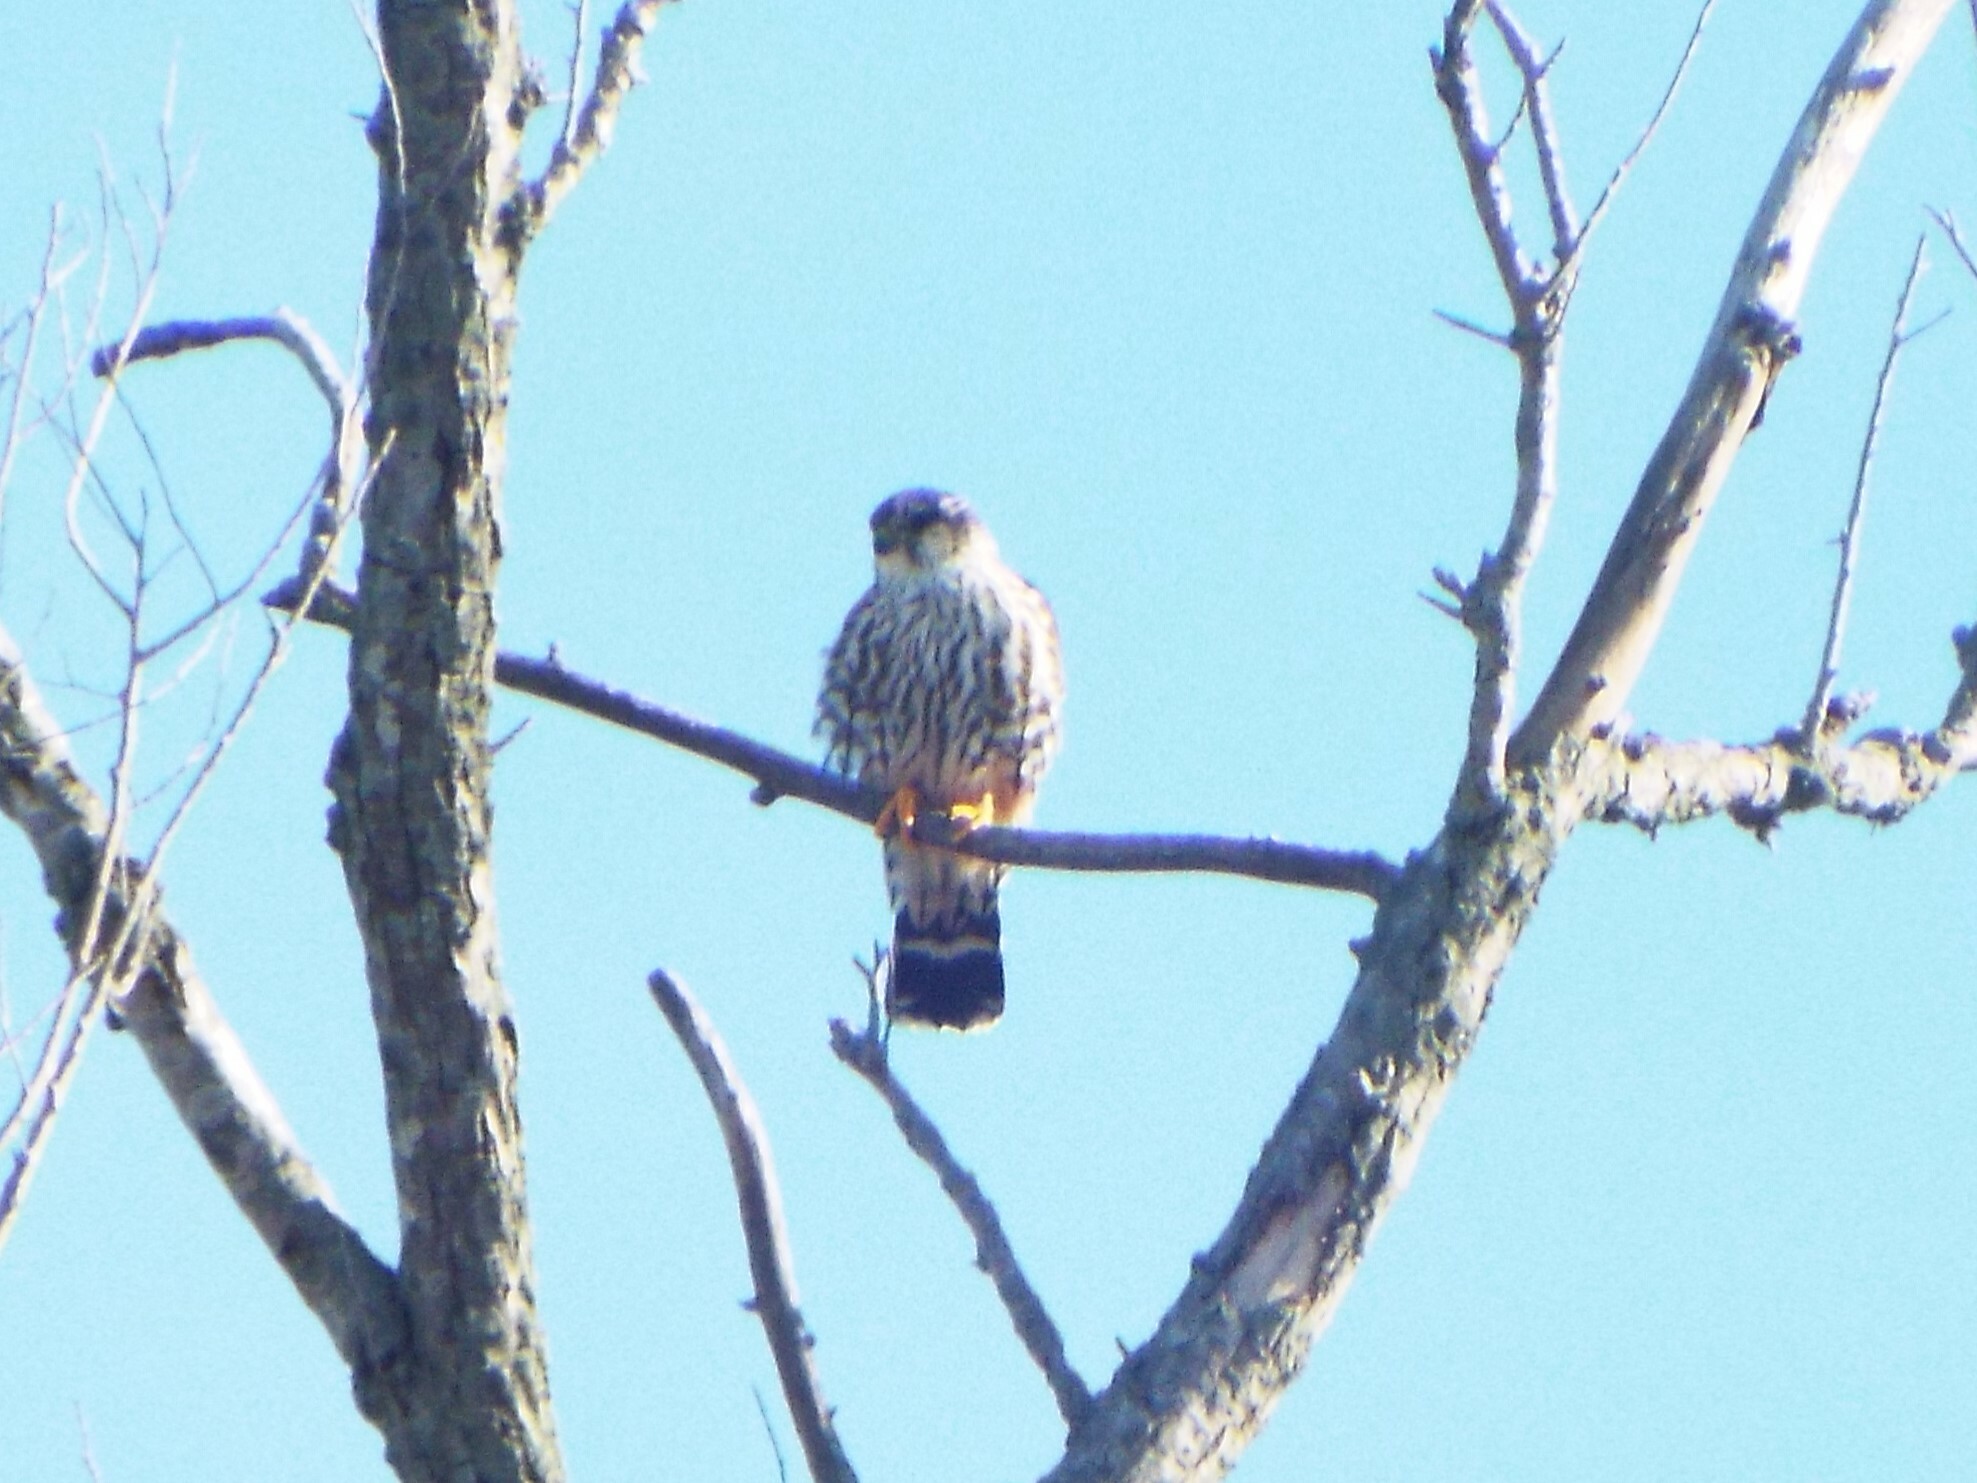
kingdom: Animalia
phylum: Chordata
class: Aves
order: Falconiformes
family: Falconidae
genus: Falco
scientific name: Falco columbarius
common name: Merlin
